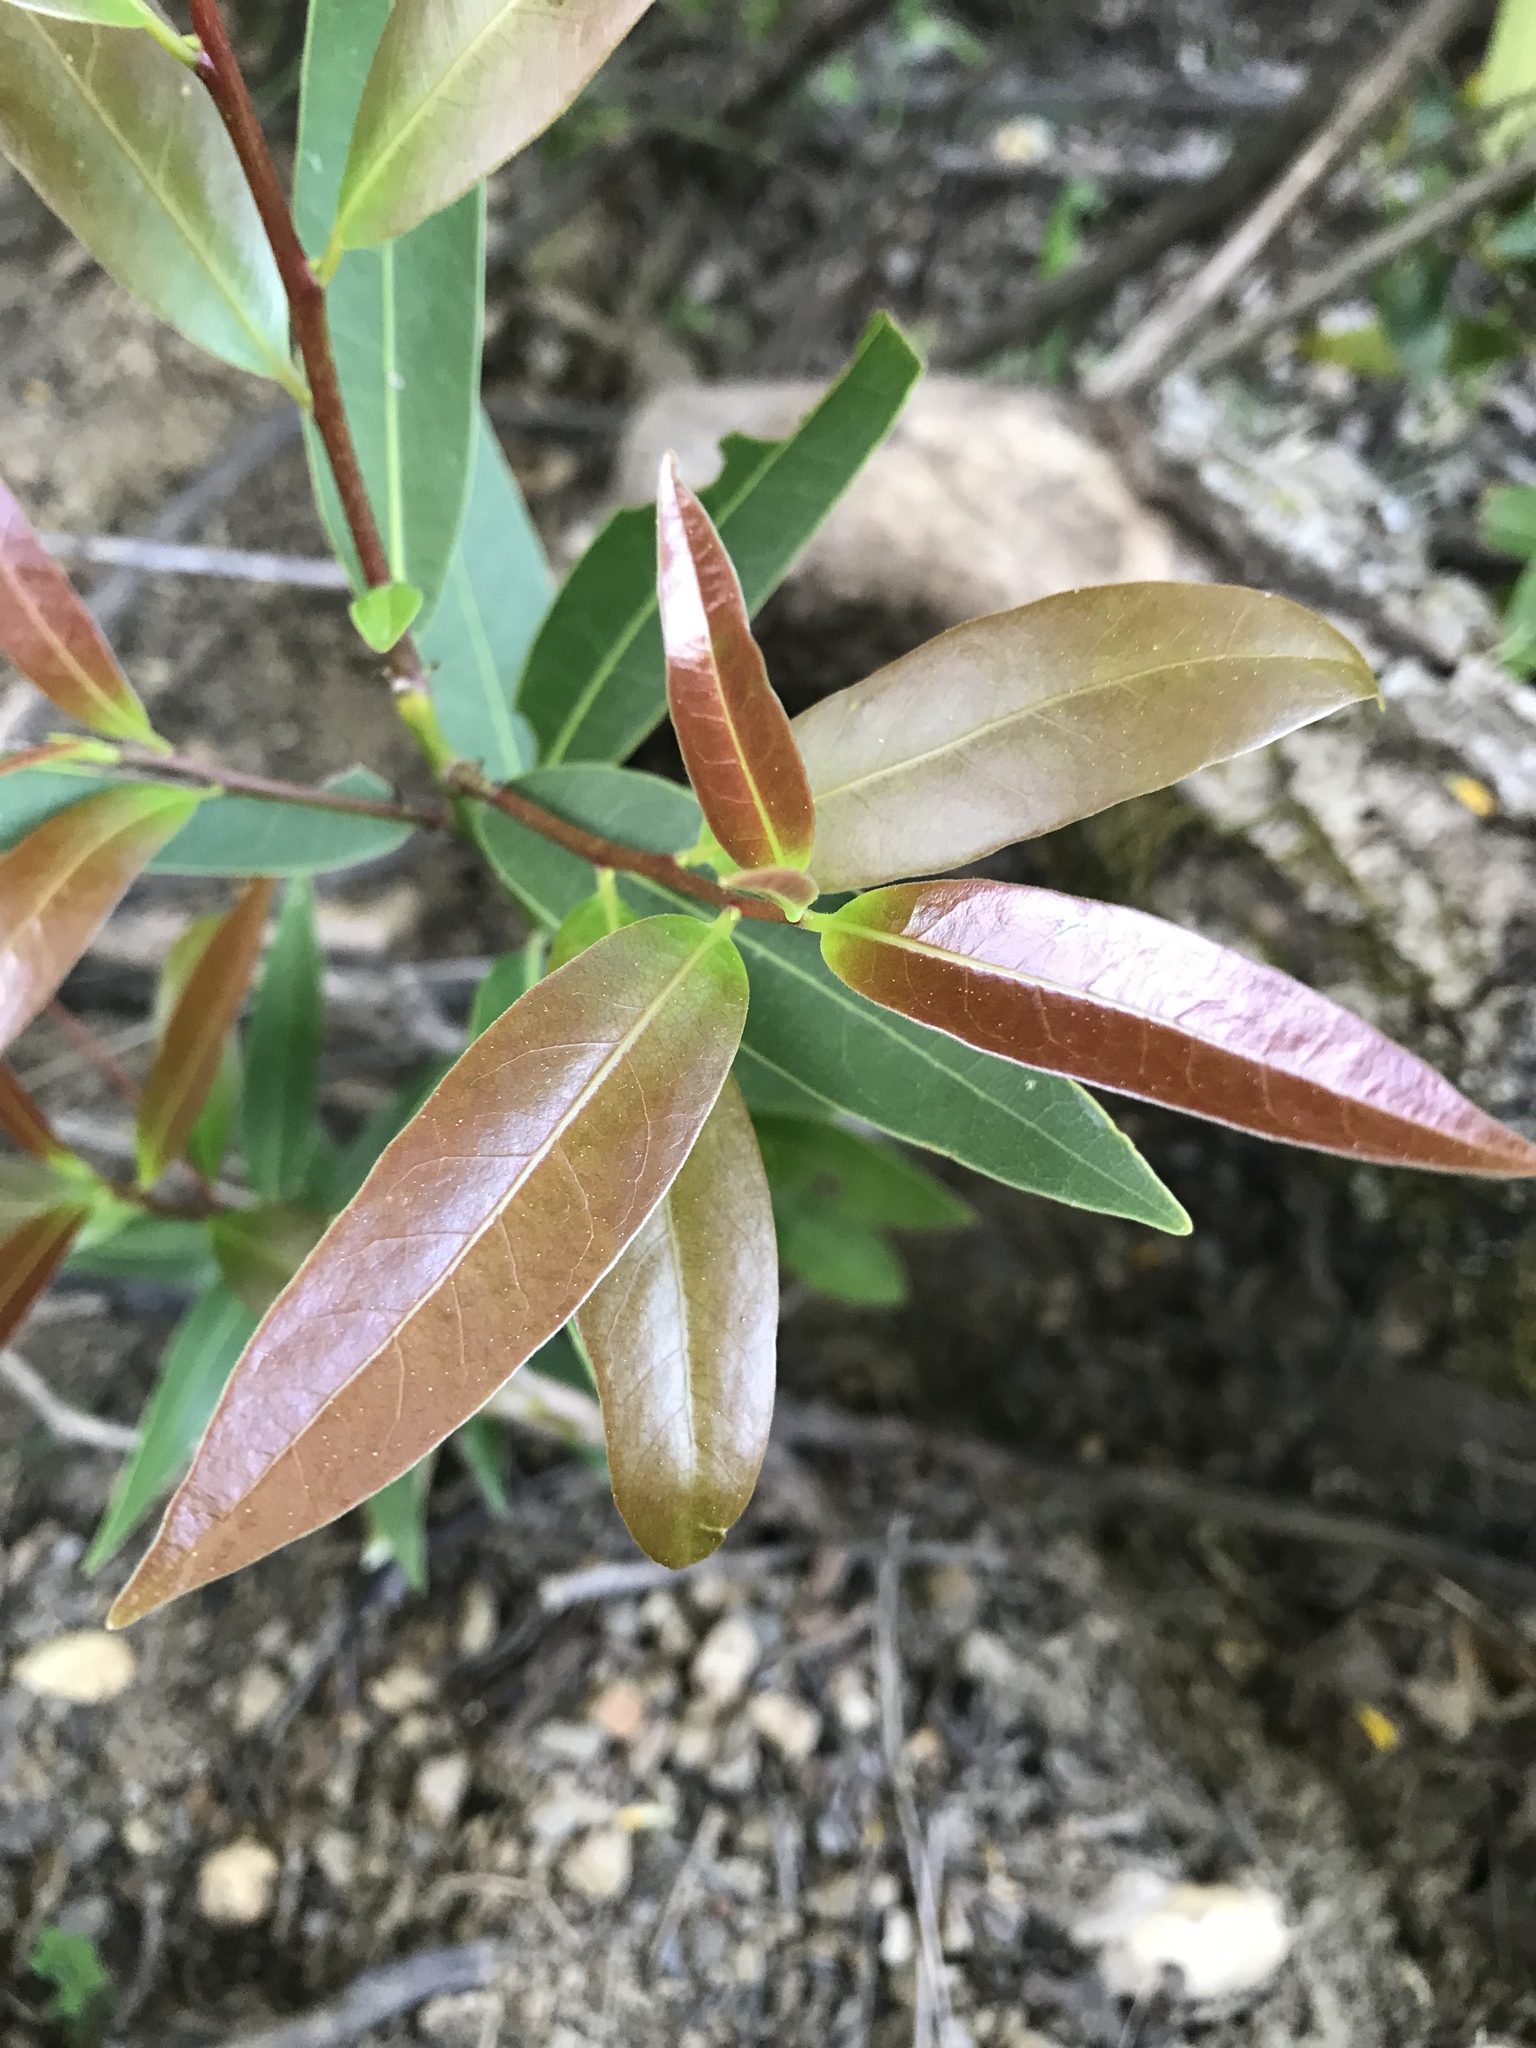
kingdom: Plantae
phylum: Tracheophyta
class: Magnoliopsida
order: Laurales
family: Lauraceae
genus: Umbellularia
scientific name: Umbellularia californica
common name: California bay
